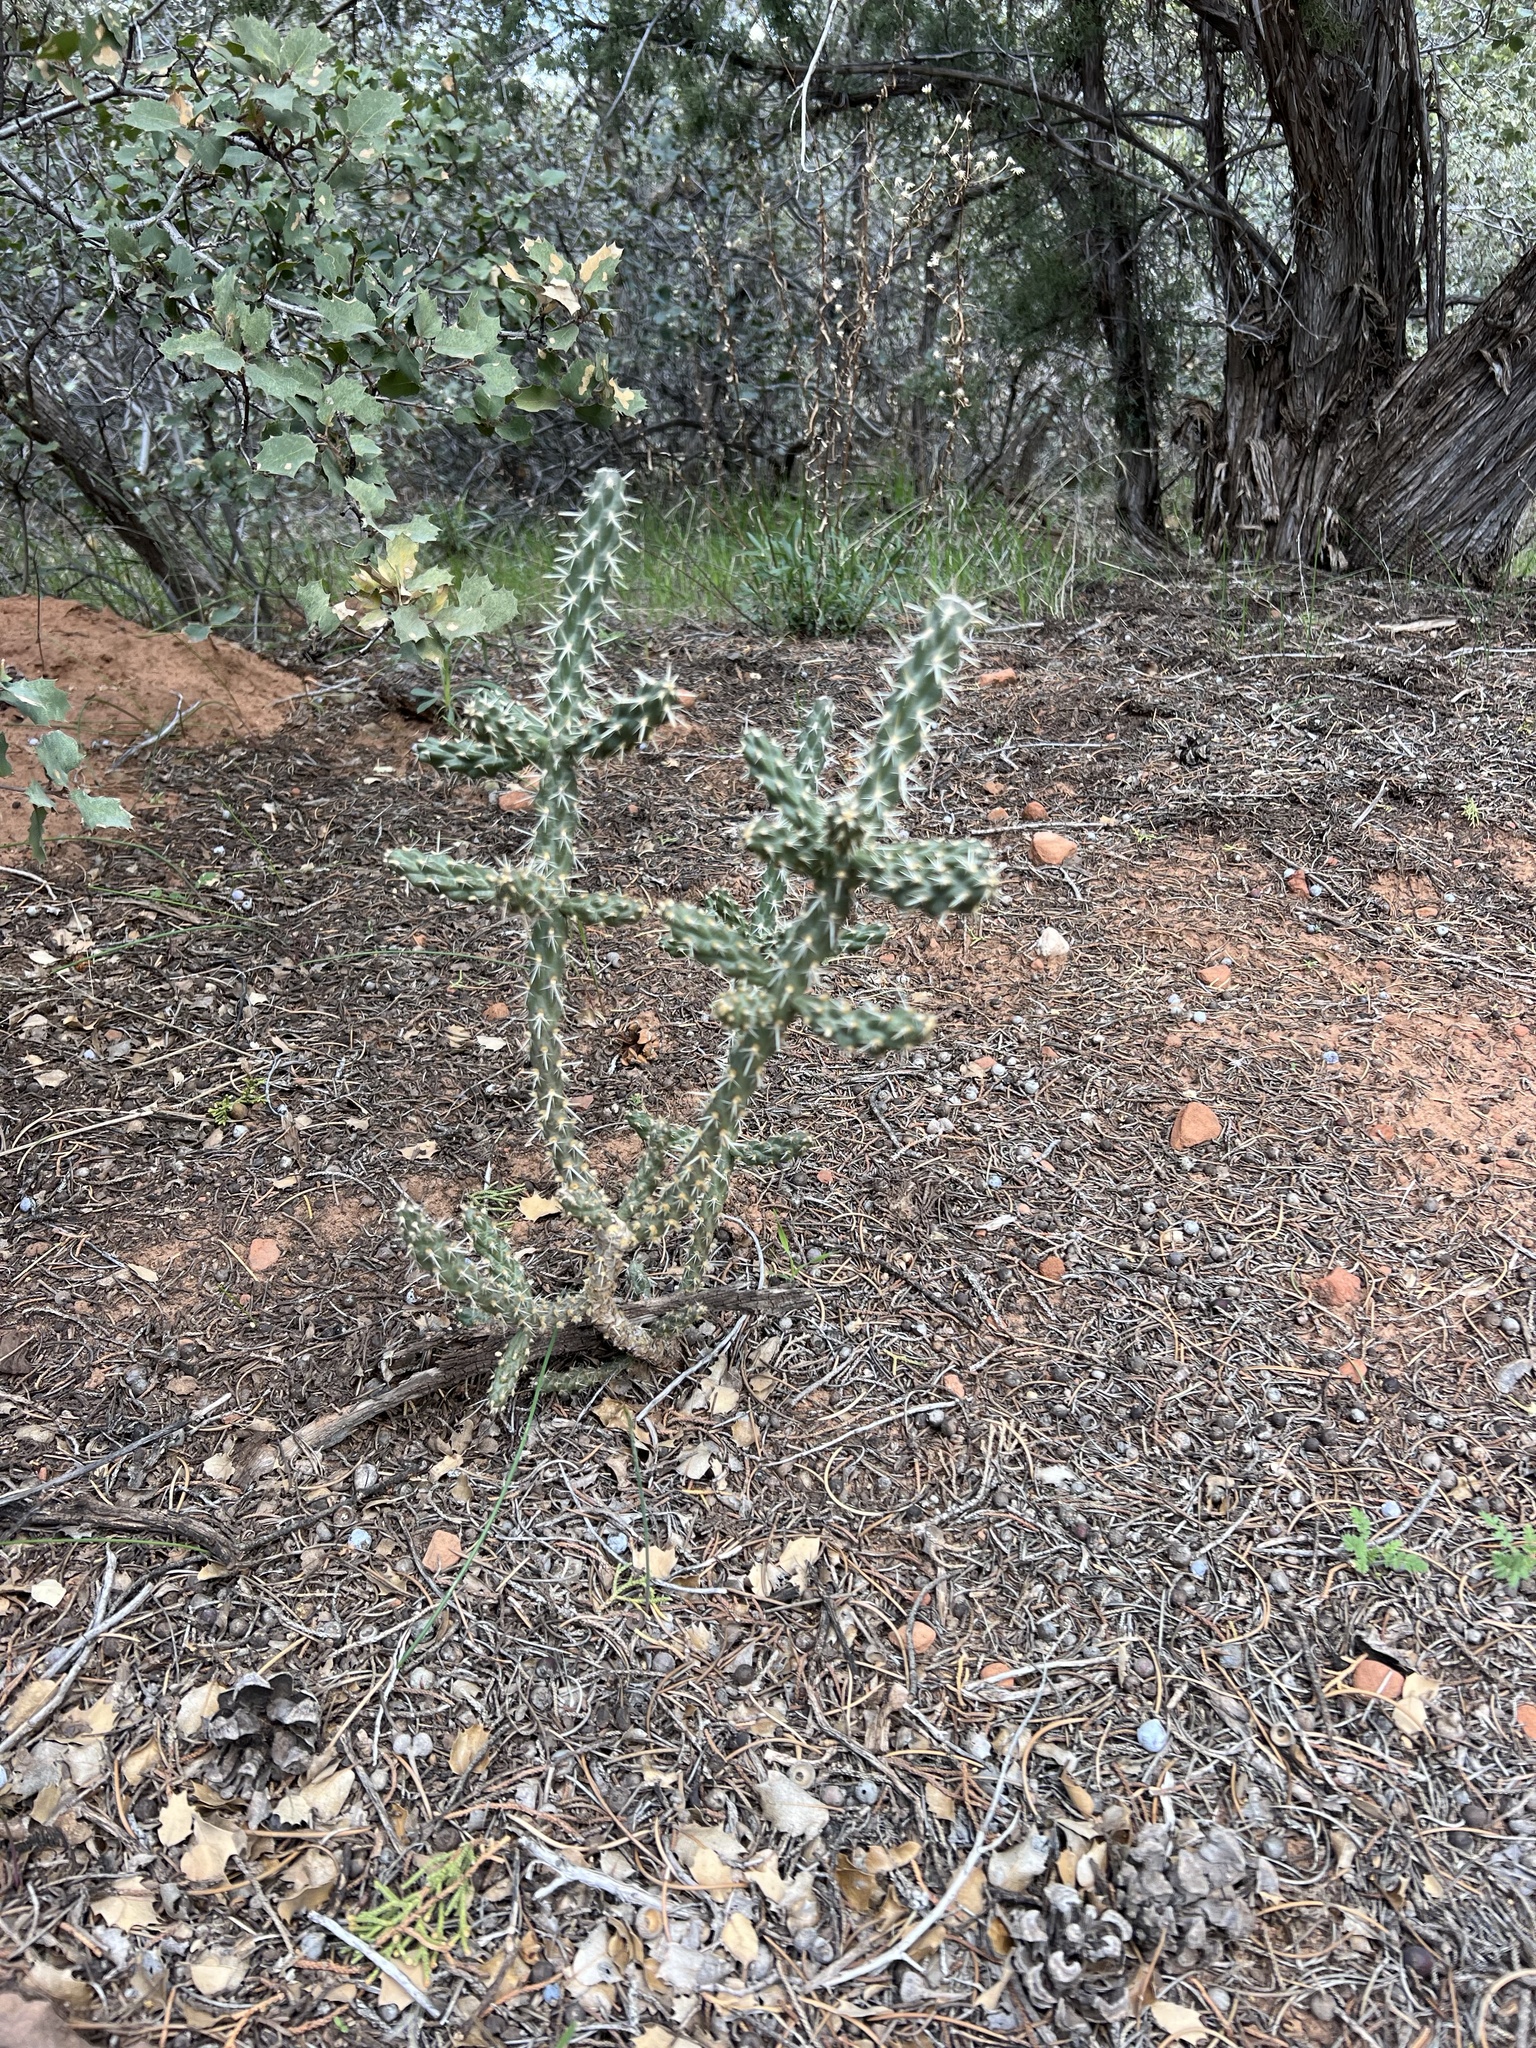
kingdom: Plantae
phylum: Tracheophyta
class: Magnoliopsida
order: Caryophyllales
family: Cactaceae
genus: Cylindropuntia
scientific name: Cylindropuntia whipplei
